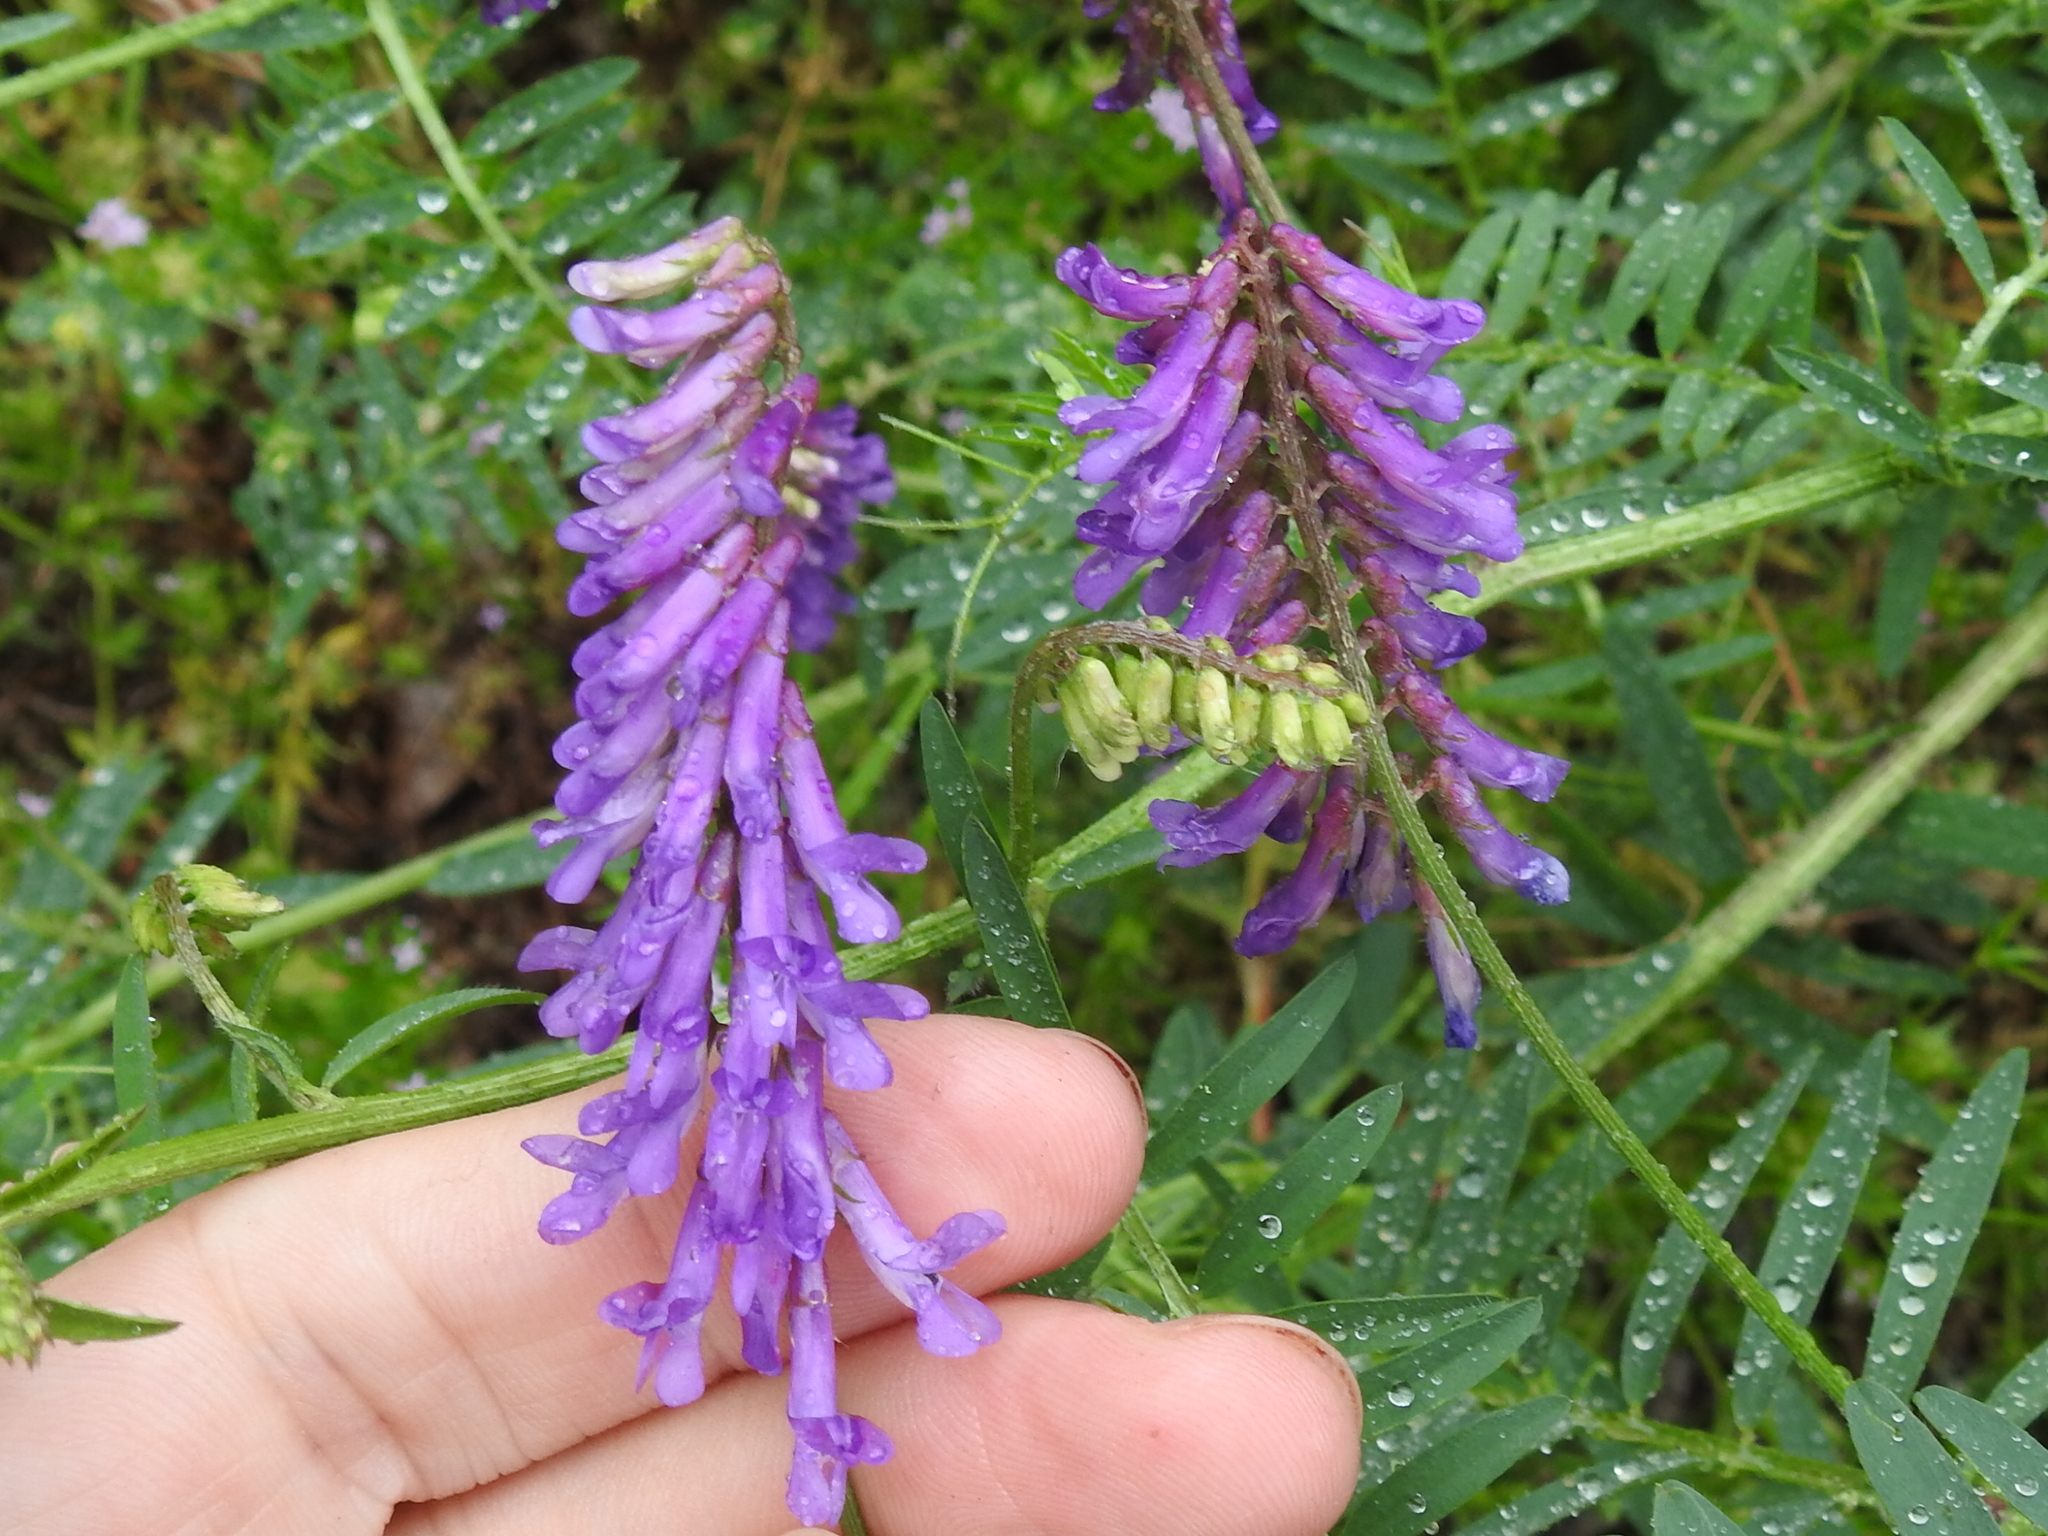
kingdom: Plantae
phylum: Tracheophyta
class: Magnoliopsida
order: Fabales
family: Fabaceae
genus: Vicia
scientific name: Vicia villosa
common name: Fodder vetch
